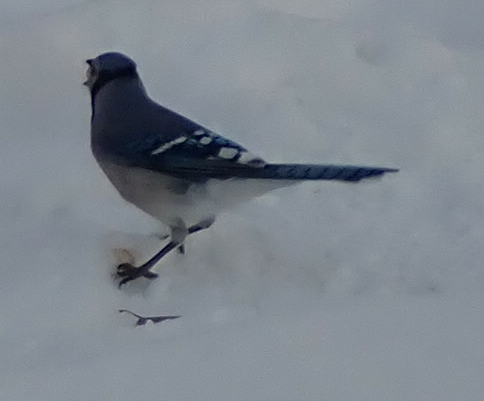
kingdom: Animalia
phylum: Chordata
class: Aves
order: Passeriformes
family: Corvidae
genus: Cyanocitta
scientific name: Cyanocitta cristata
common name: Blue jay
